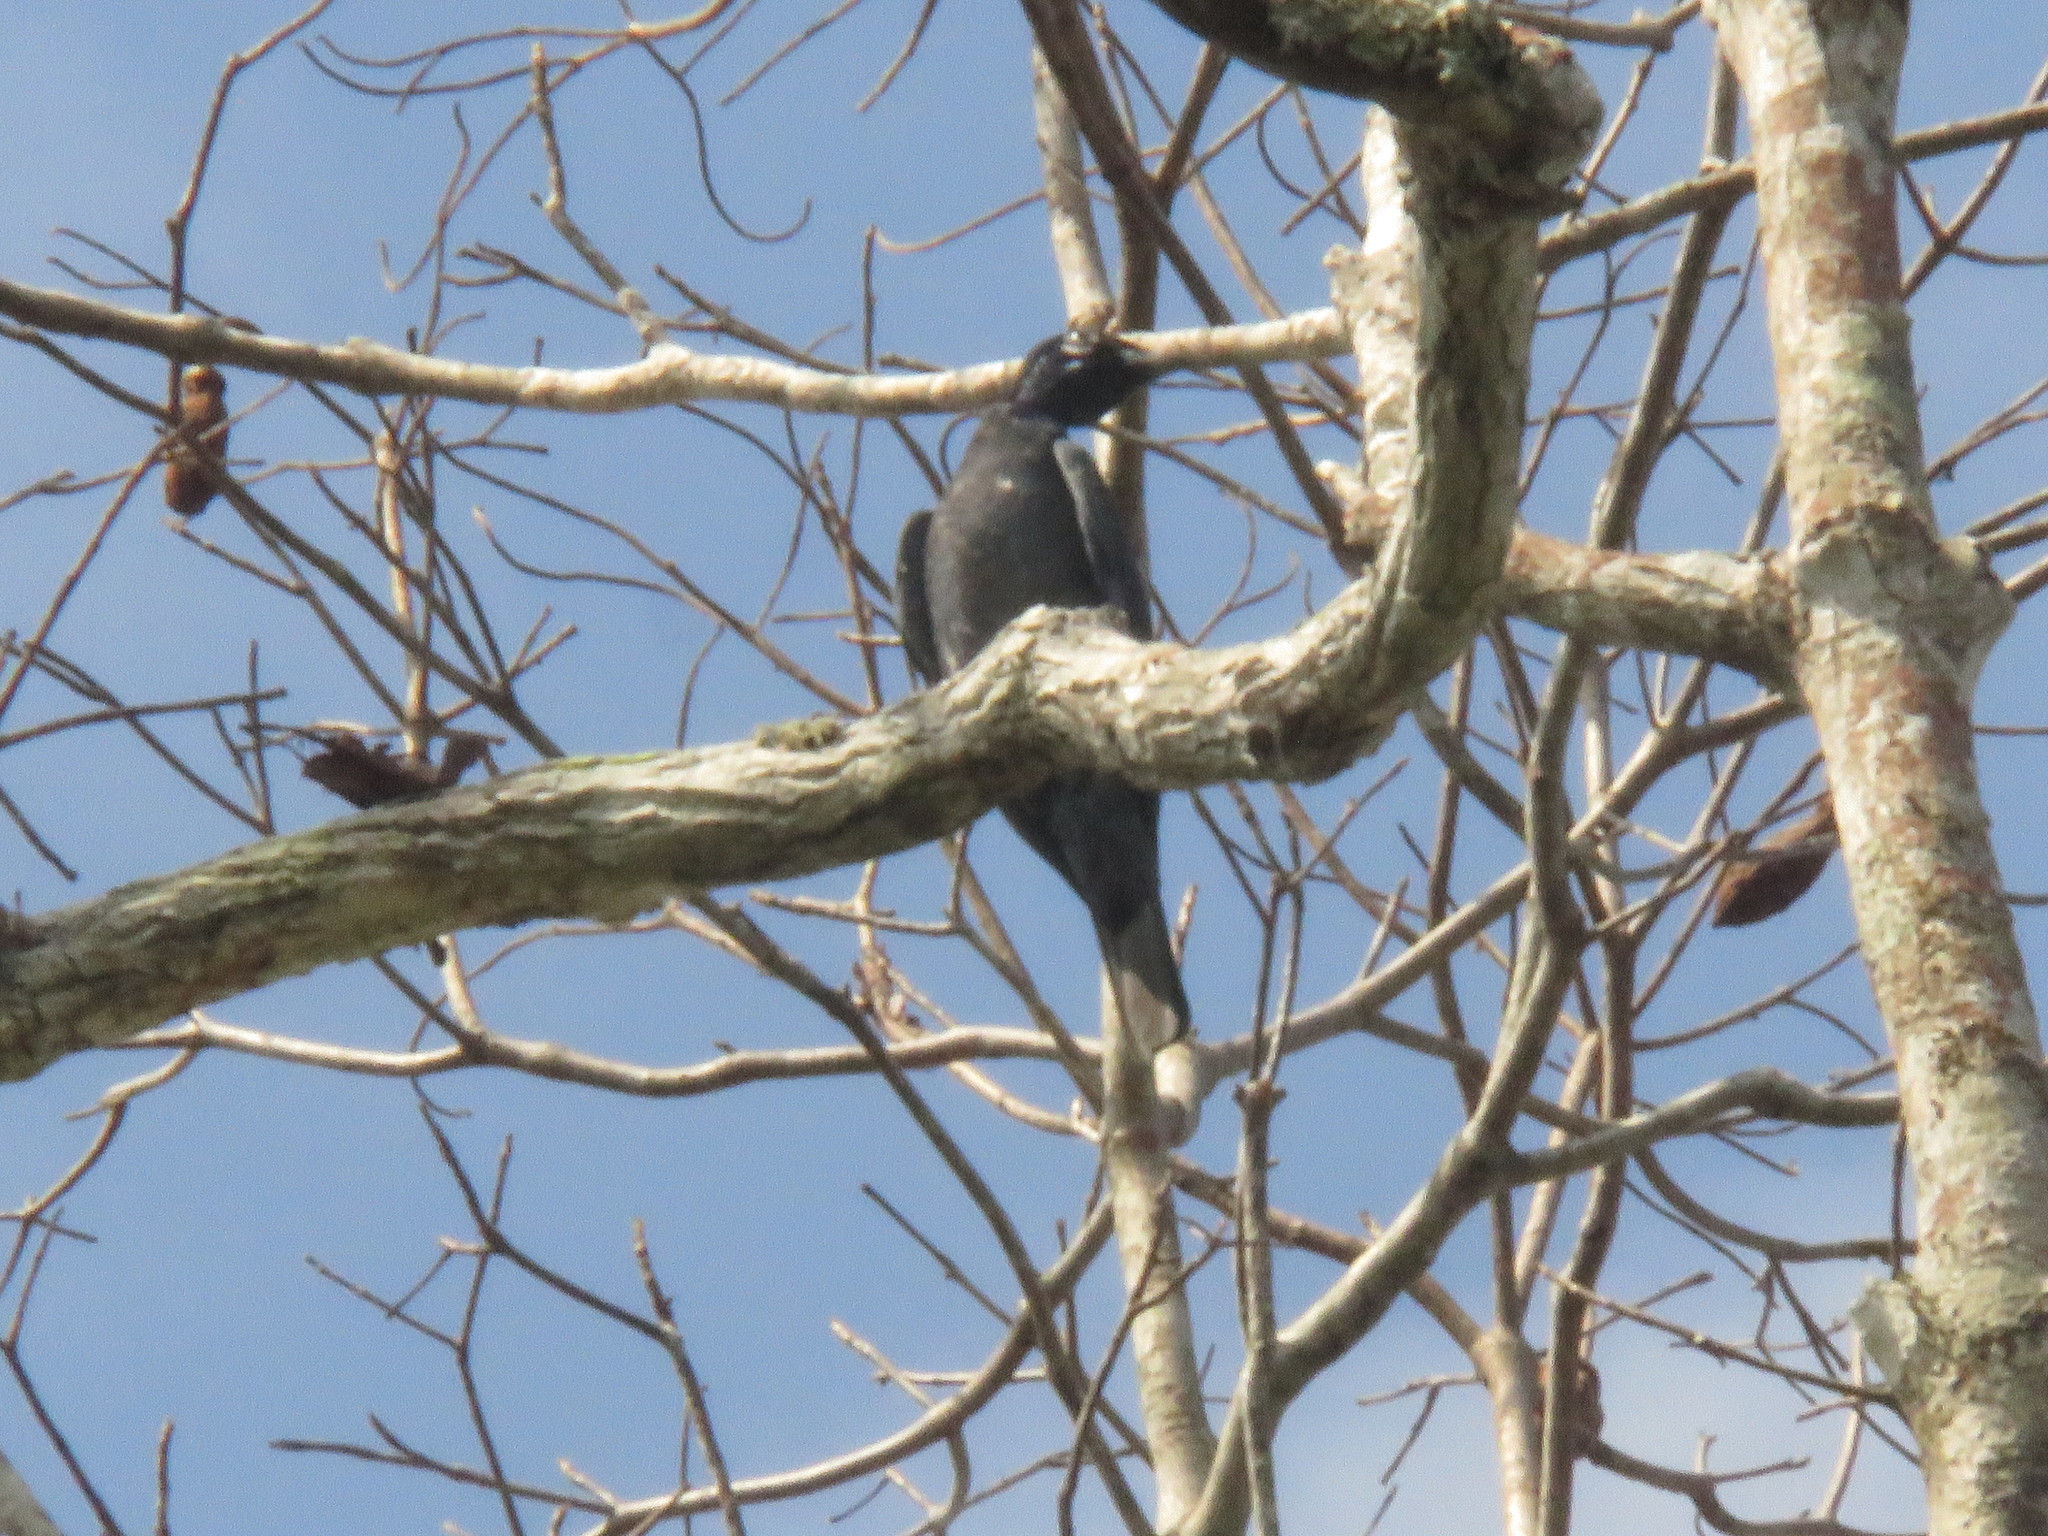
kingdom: Animalia
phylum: Chordata
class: Aves
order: Passeriformes
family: Cotingidae
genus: Gymnoderus
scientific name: Gymnoderus foetidus
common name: Bare-necked fruitcrow
